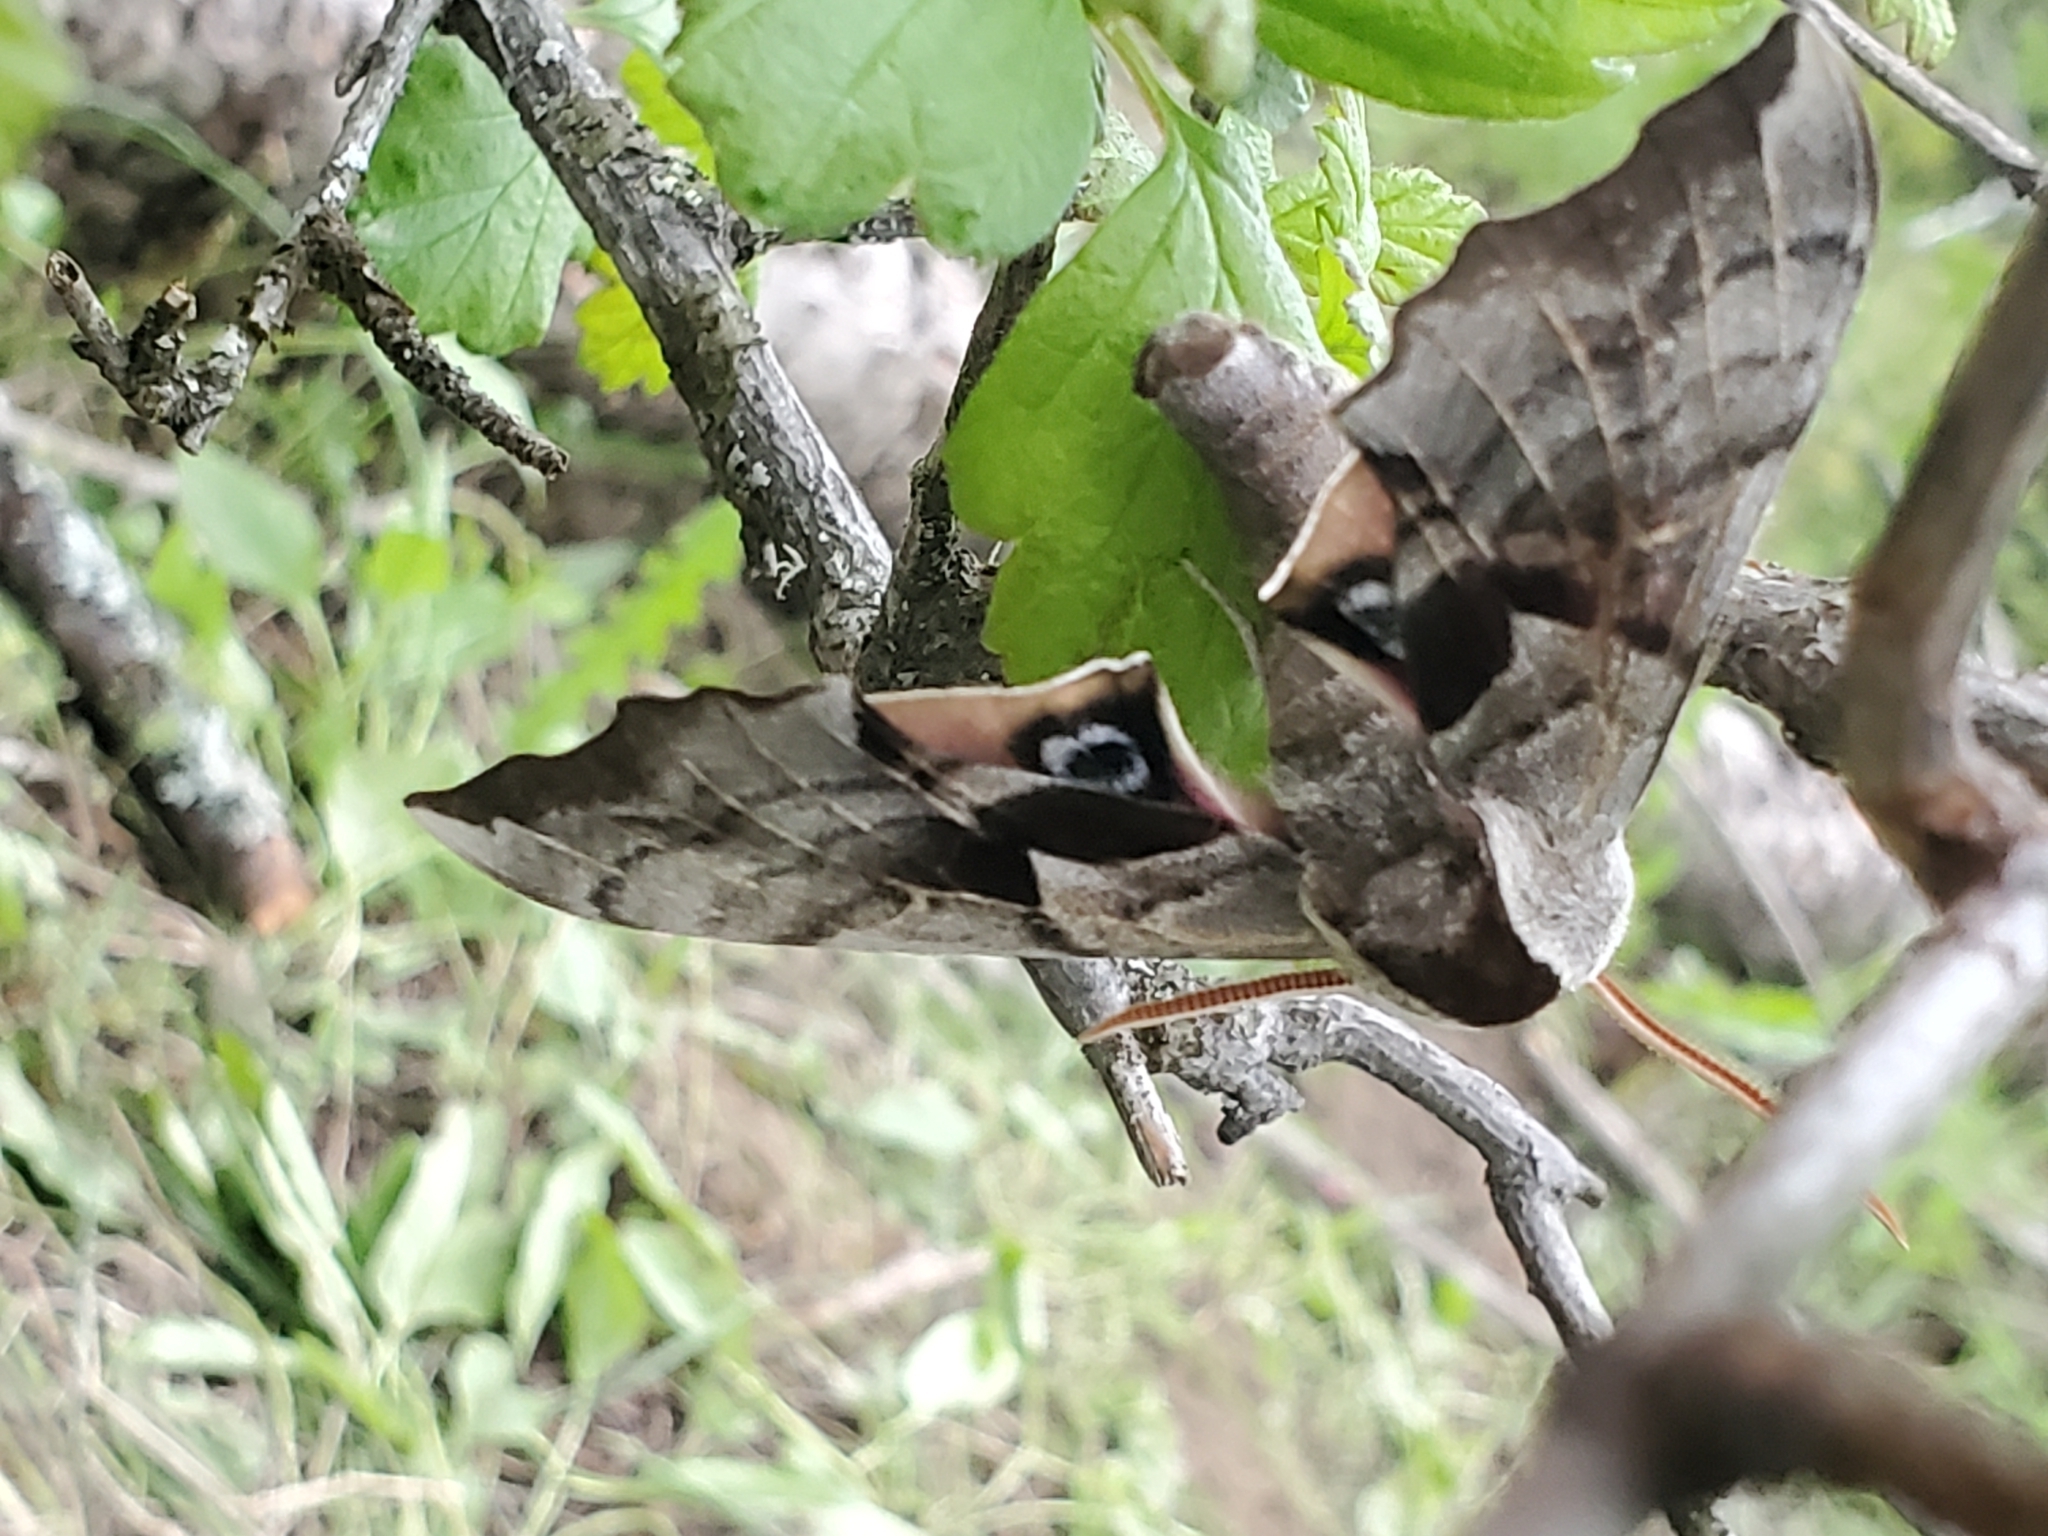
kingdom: Animalia
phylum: Arthropoda
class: Insecta
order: Lepidoptera
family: Sphingidae
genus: Smerinthus
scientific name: Smerinthus cerisyi
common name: Cerisy's sphinx moth
